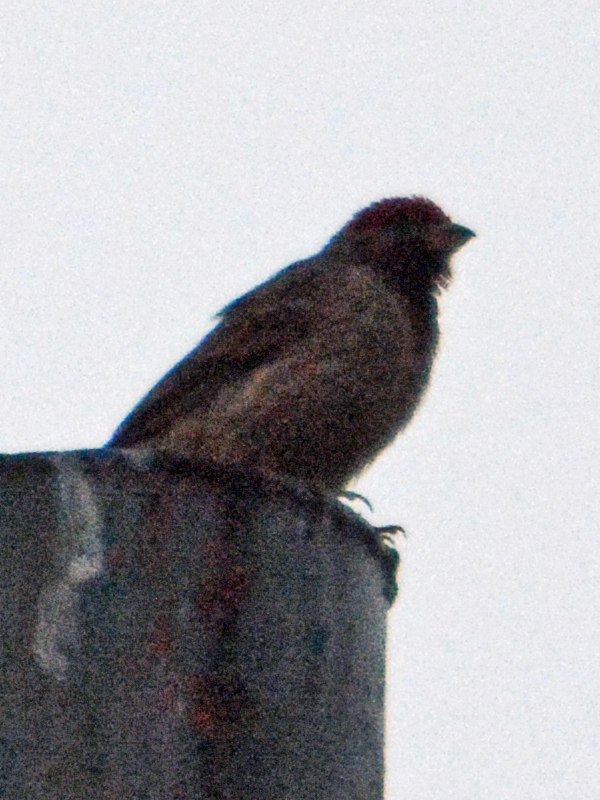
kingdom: Animalia
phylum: Chordata
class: Aves
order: Passeriformes
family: Fringillidae
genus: Haemorhous
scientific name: Haemorhous mexicanus
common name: House finch
